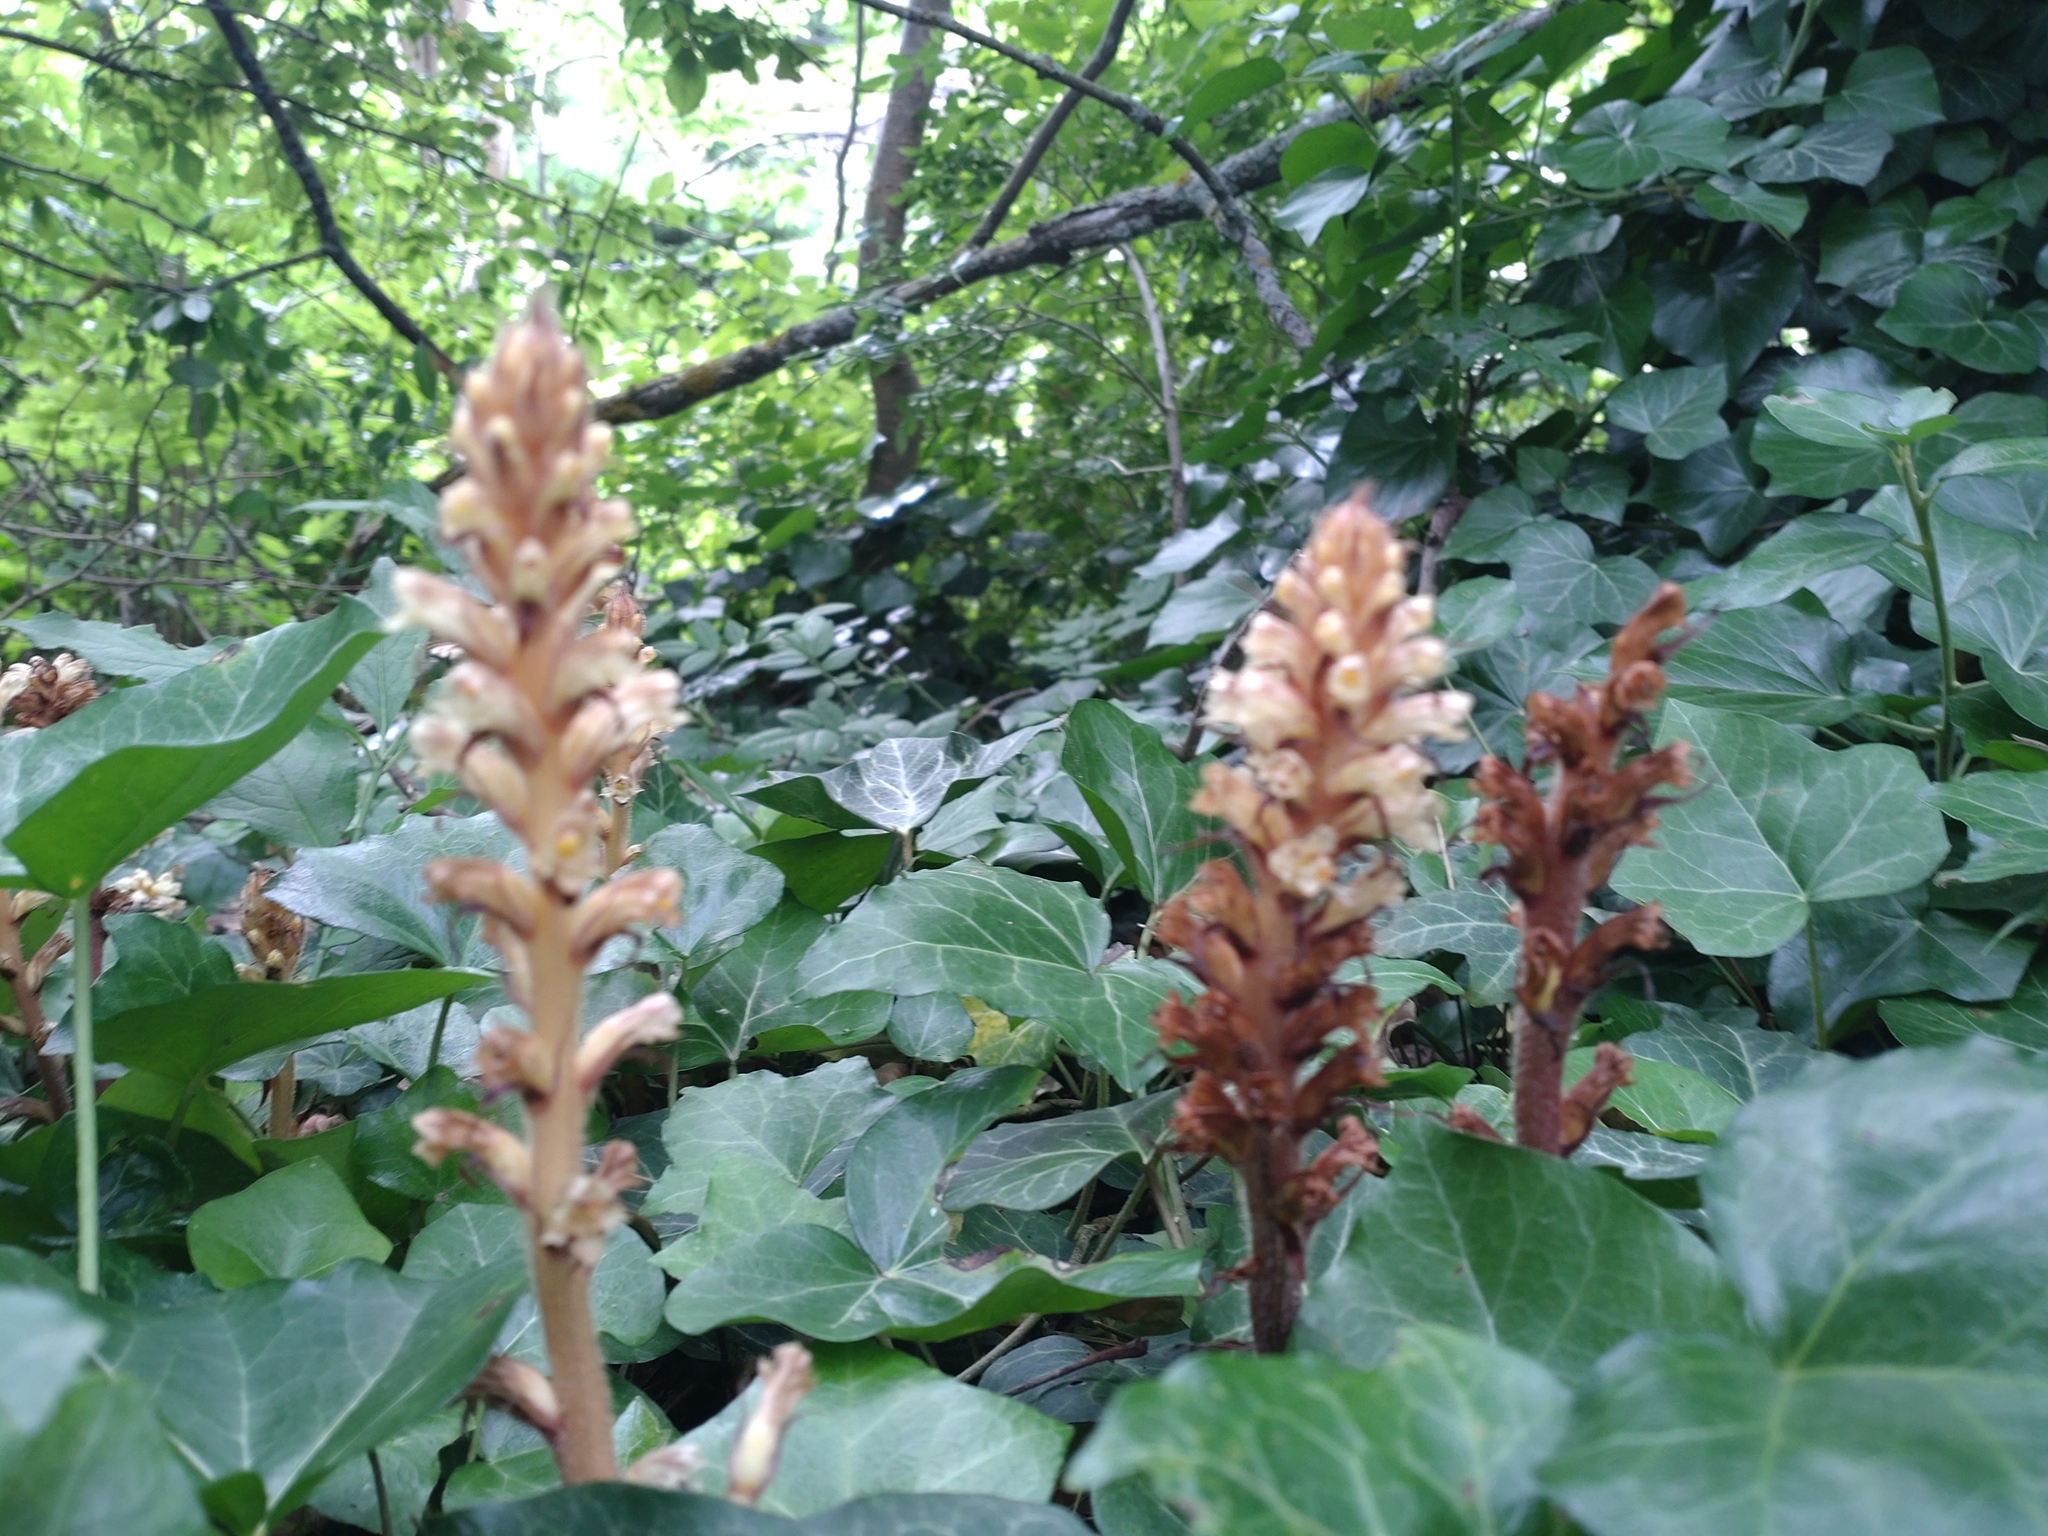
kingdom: Plantae
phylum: Tracheophyta
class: Magnoliopsida
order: Lamiales
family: Orobanchaceae
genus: Orobanche
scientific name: Orobanche hederae
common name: Ivy broomrape
